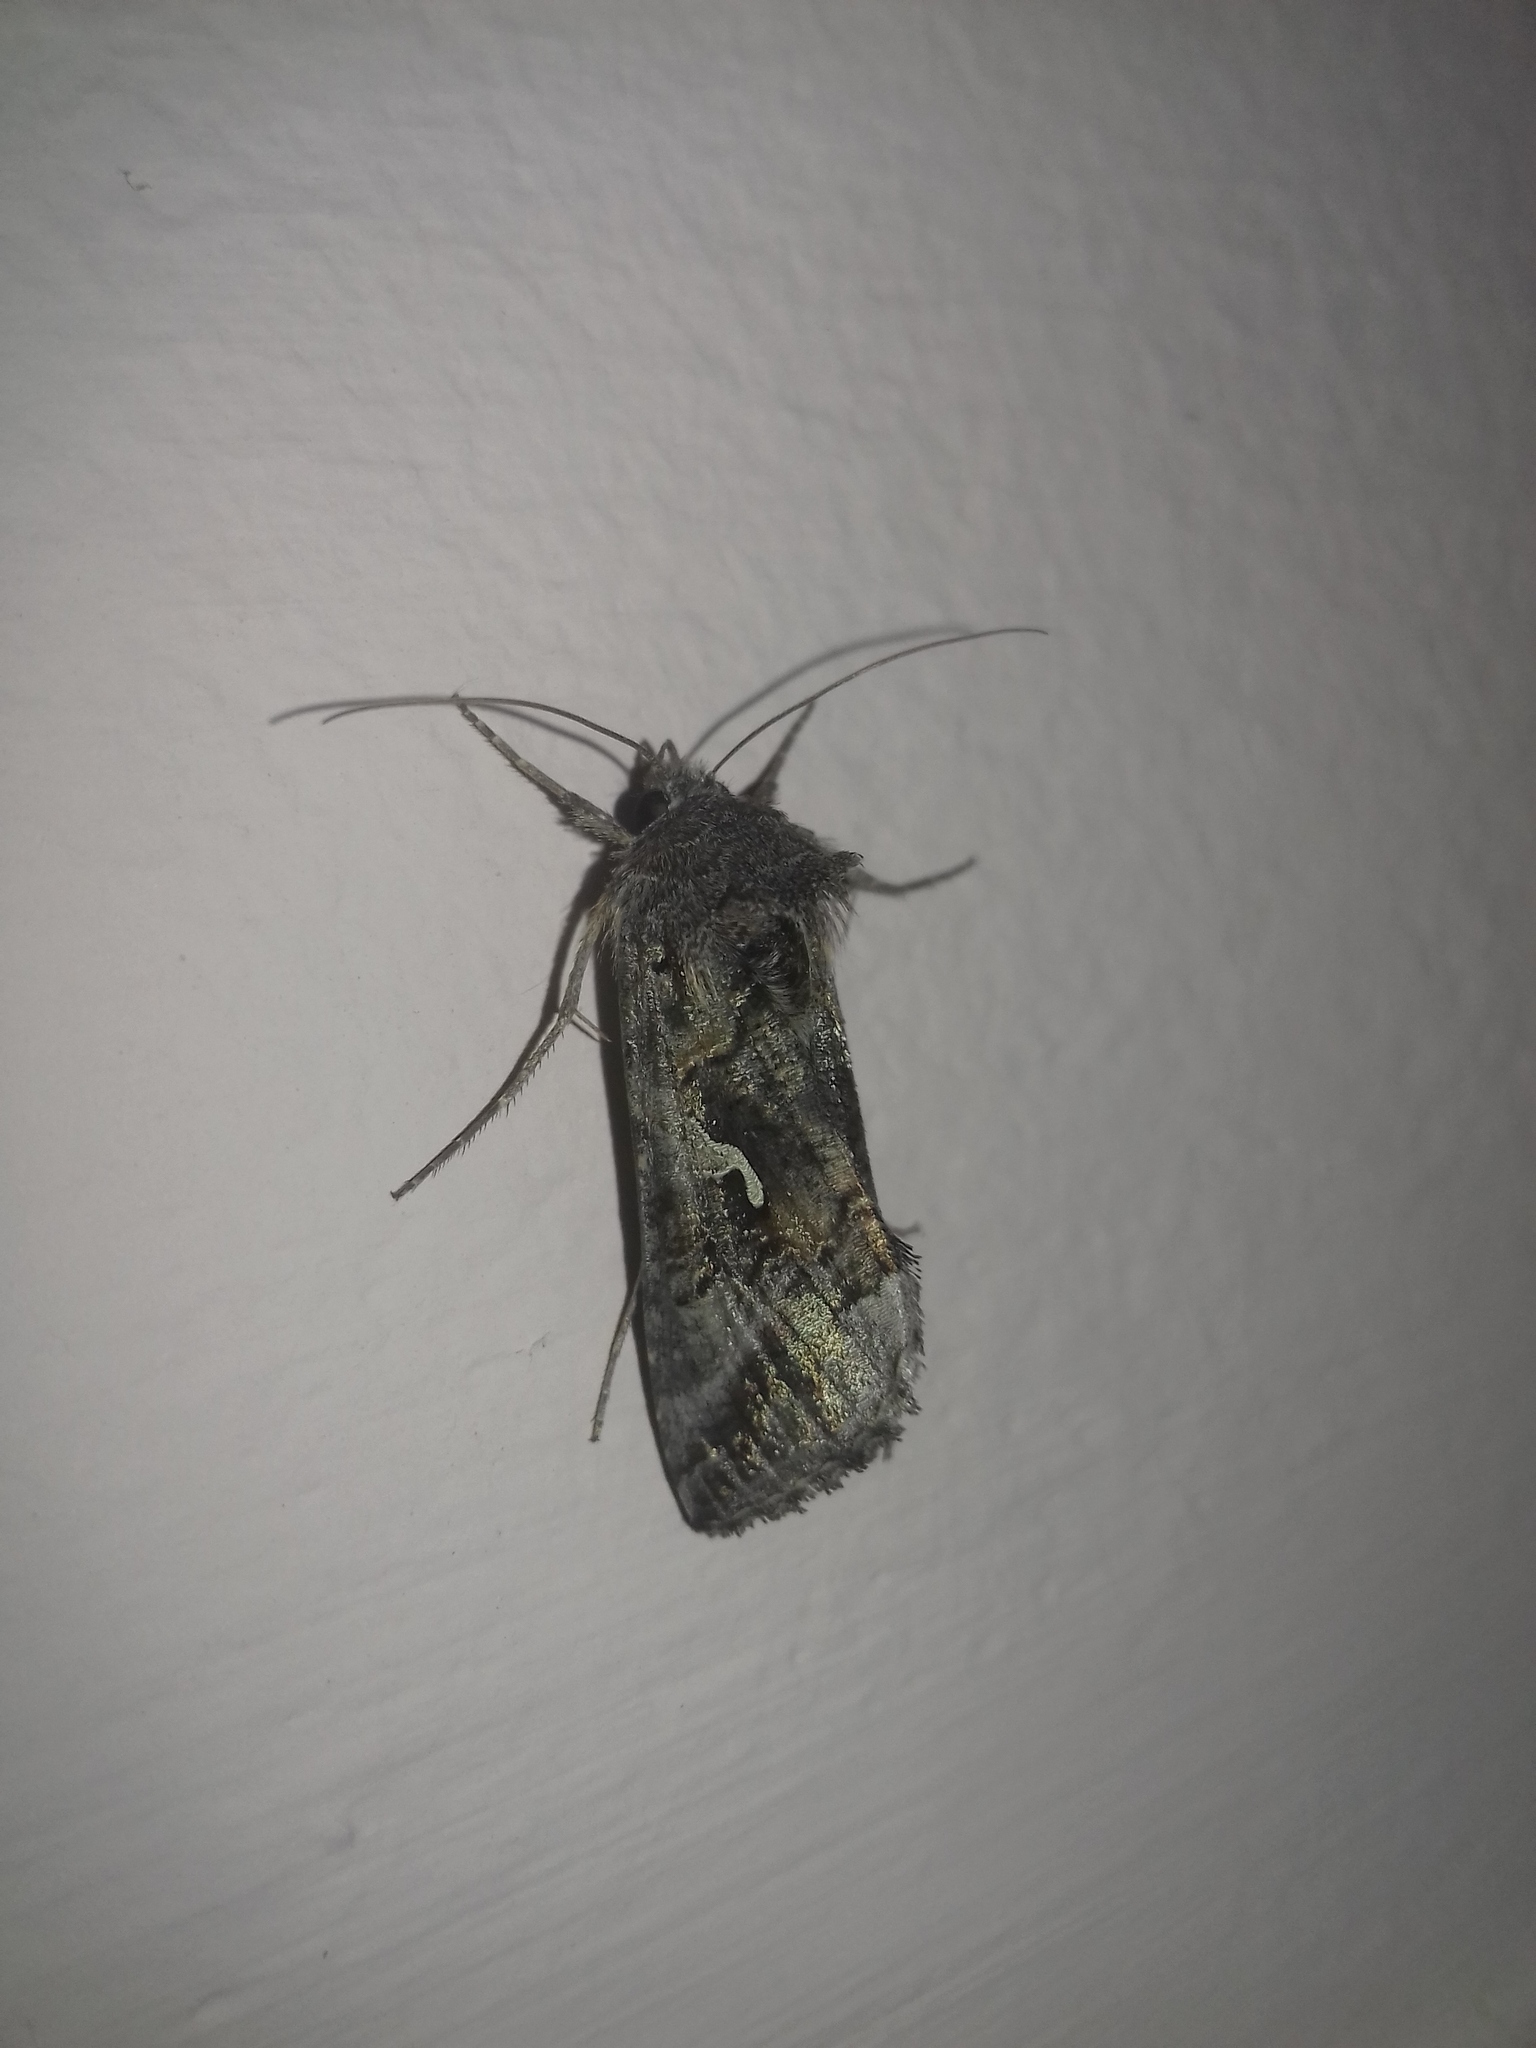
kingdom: Animalia
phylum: Arthropoda
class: Insecta
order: Lepidoptera
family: Noctuidae
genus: Autographa
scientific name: Autographa gamma
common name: Silver y
